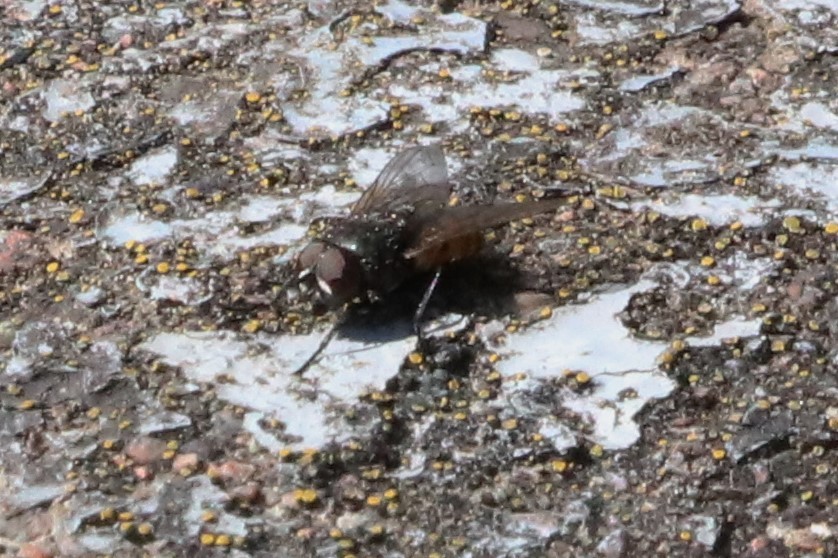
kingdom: Animalia
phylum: Arthropoda
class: Insecta
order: Diptera
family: Muscidae
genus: Musca
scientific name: Musca autumnalis
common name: Face fly
